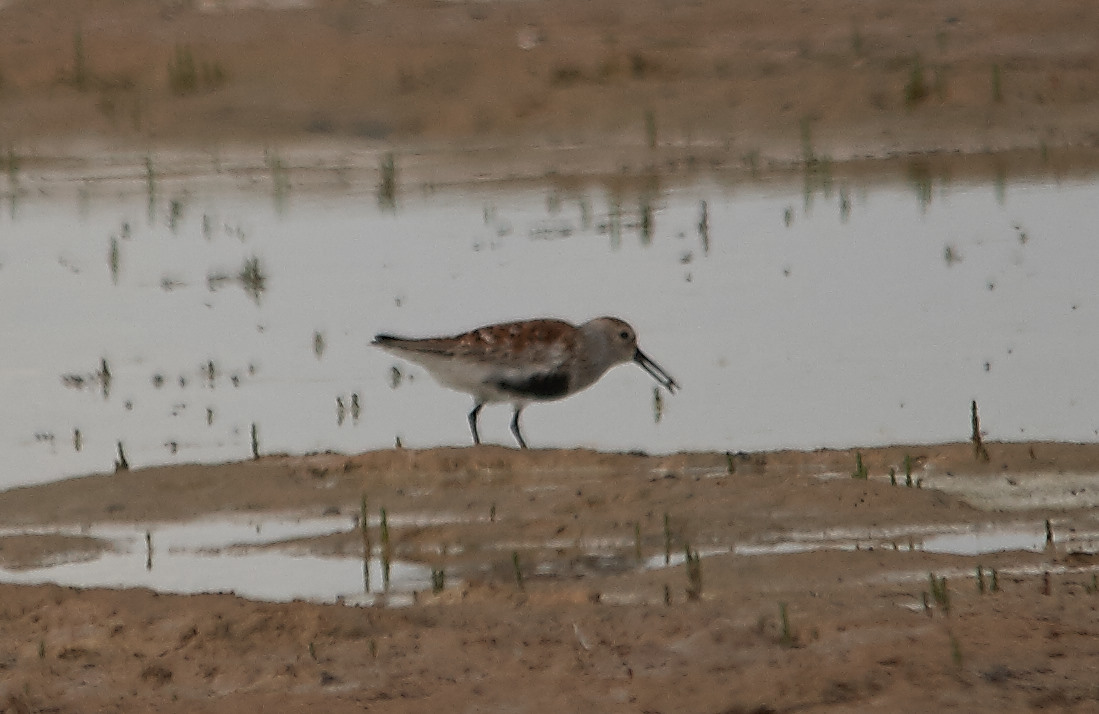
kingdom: Animalia
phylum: Chordata
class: Aves
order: Charadriiformes
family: Scolopacidae
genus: Calidris
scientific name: Calidris alpina
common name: Dunlin
